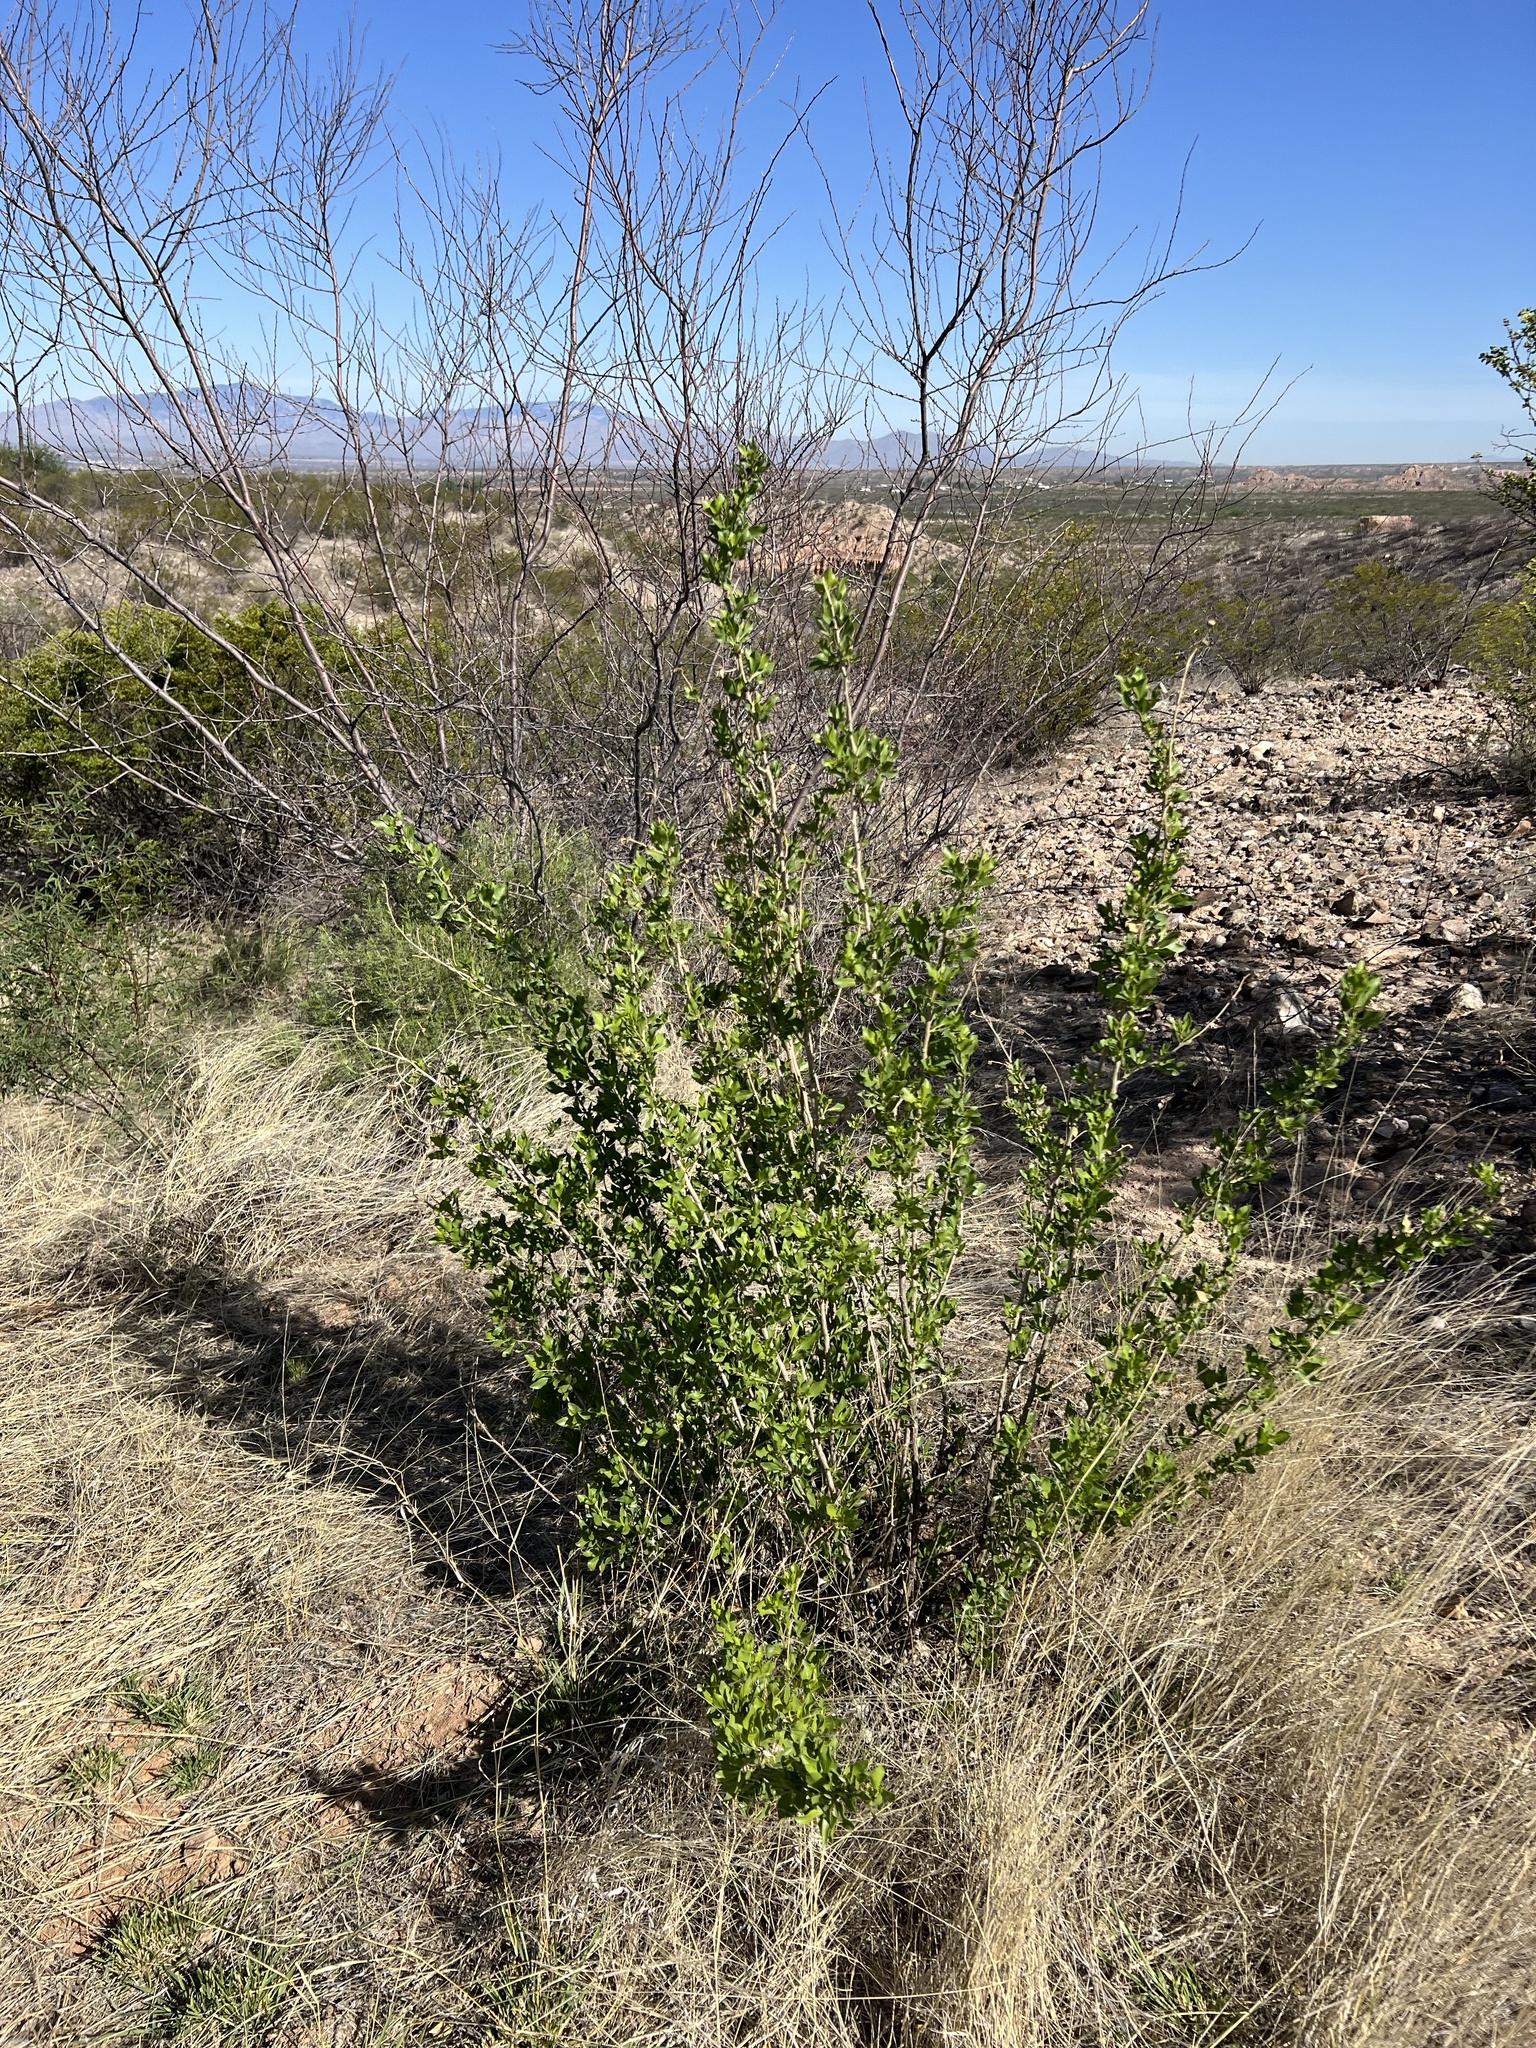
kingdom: Plantae
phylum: Tracheophyta
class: Magnoliopsida
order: Asterales
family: Asteraceae
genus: Flourensia
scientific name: Flourensia cernua
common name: Varnishbush
